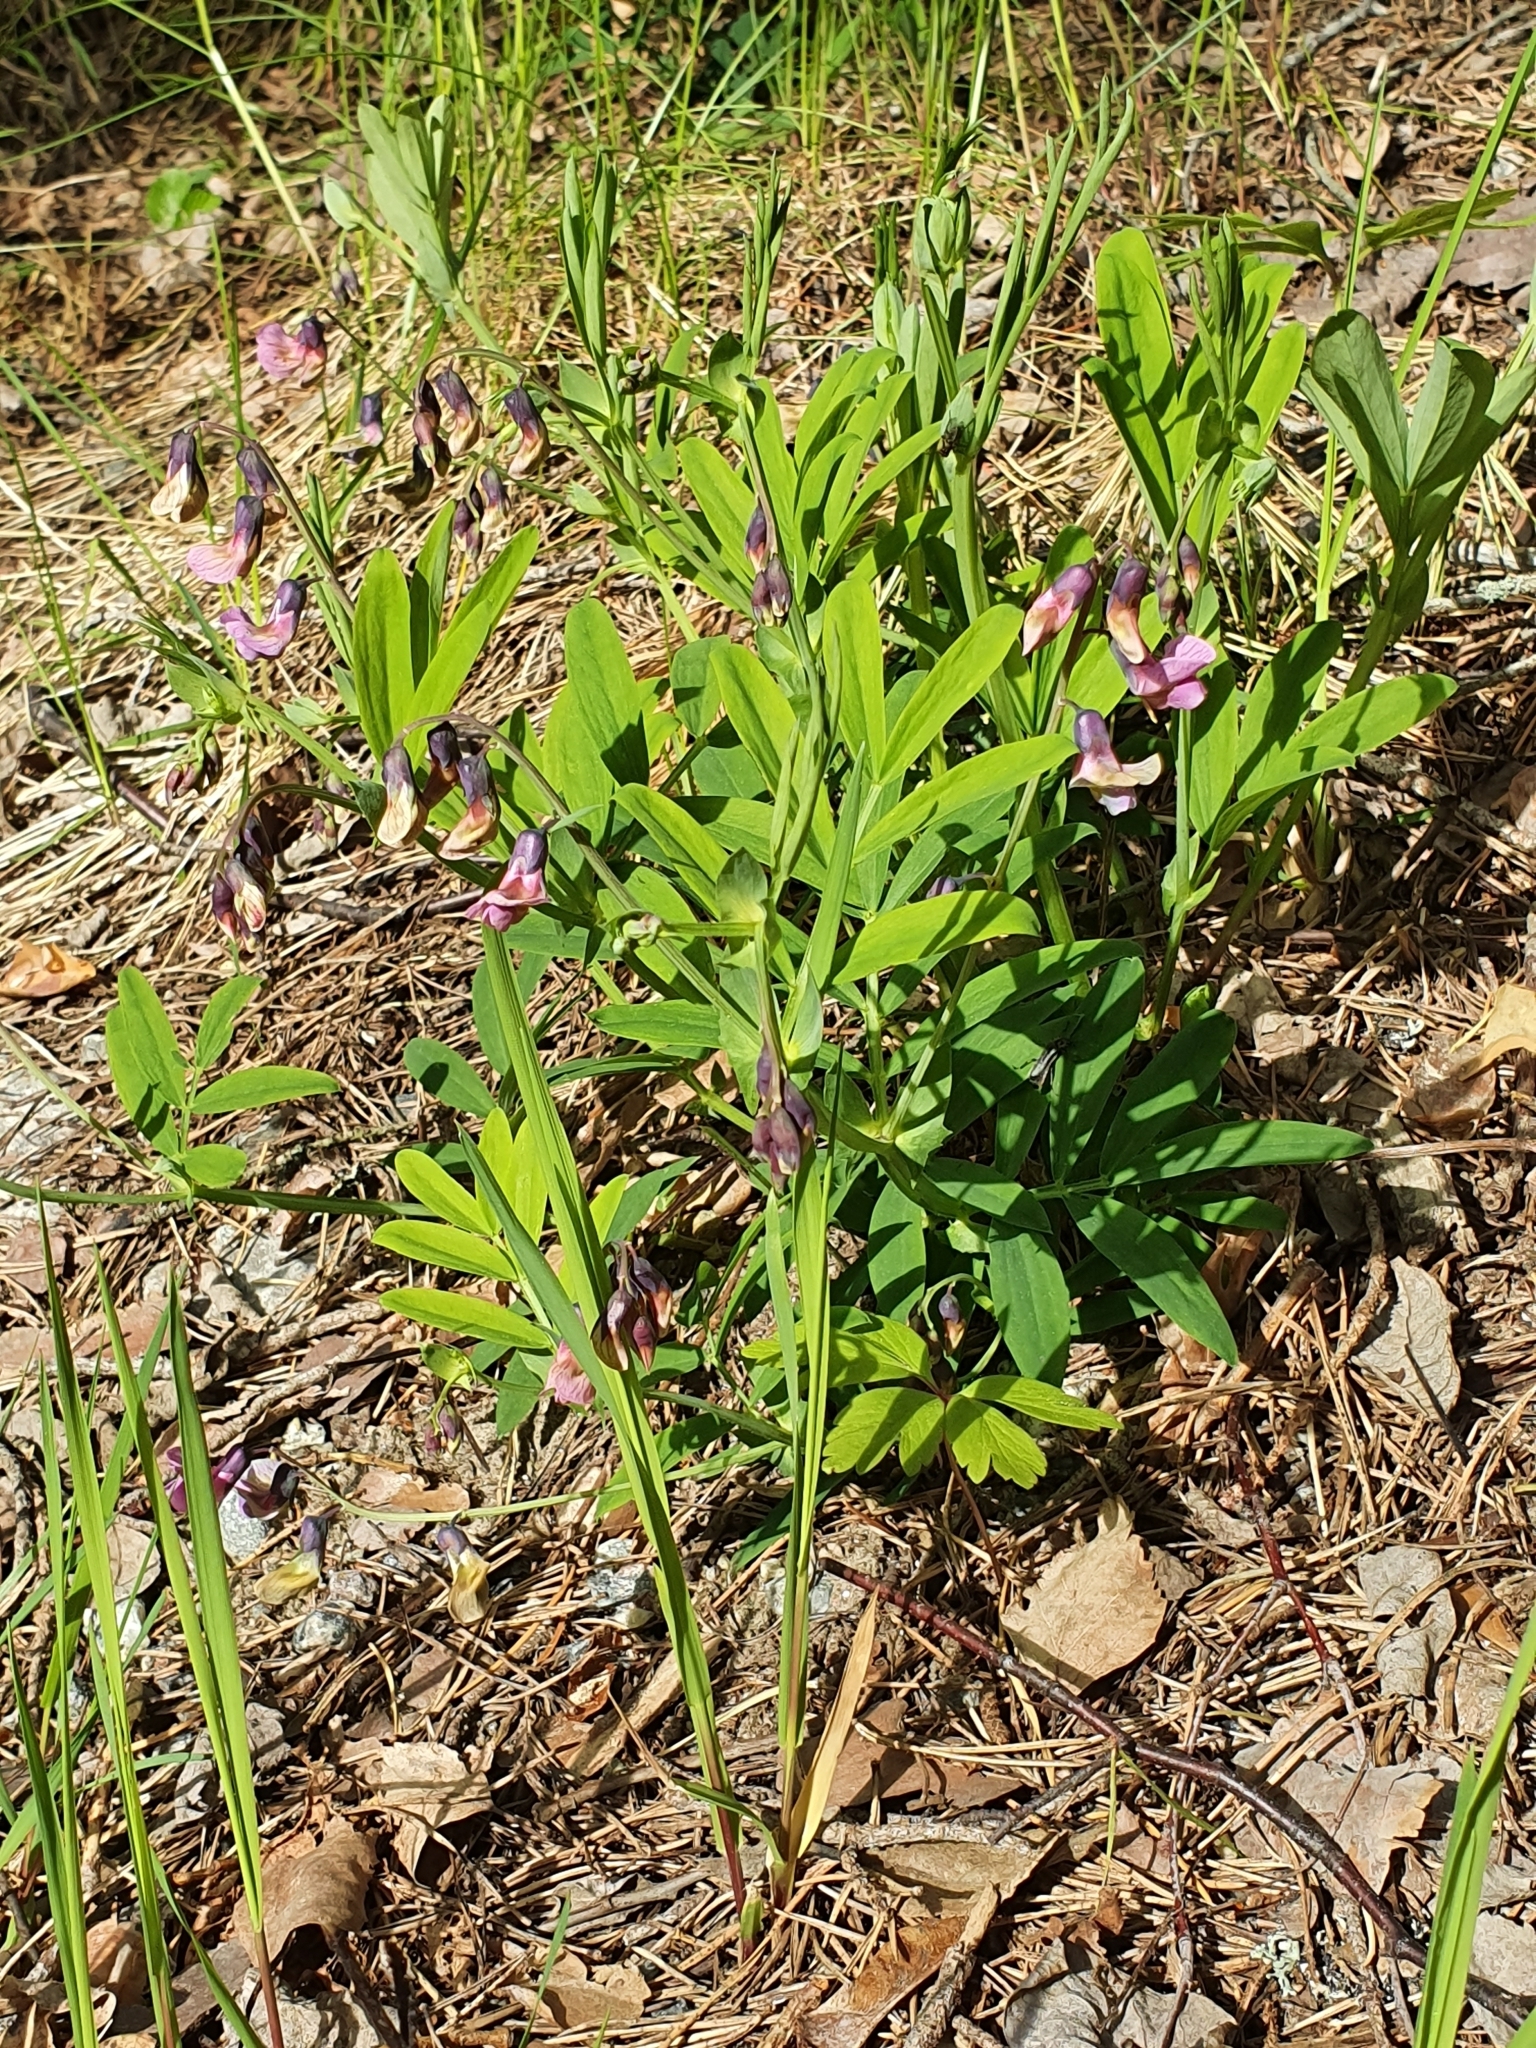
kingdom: Plantae
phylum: Tracheophyta
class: Magnoliopsida
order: Fabales
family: Fabaceae
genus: Lathyrus
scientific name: Lathyrus linifolius
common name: Bitter-vetch
